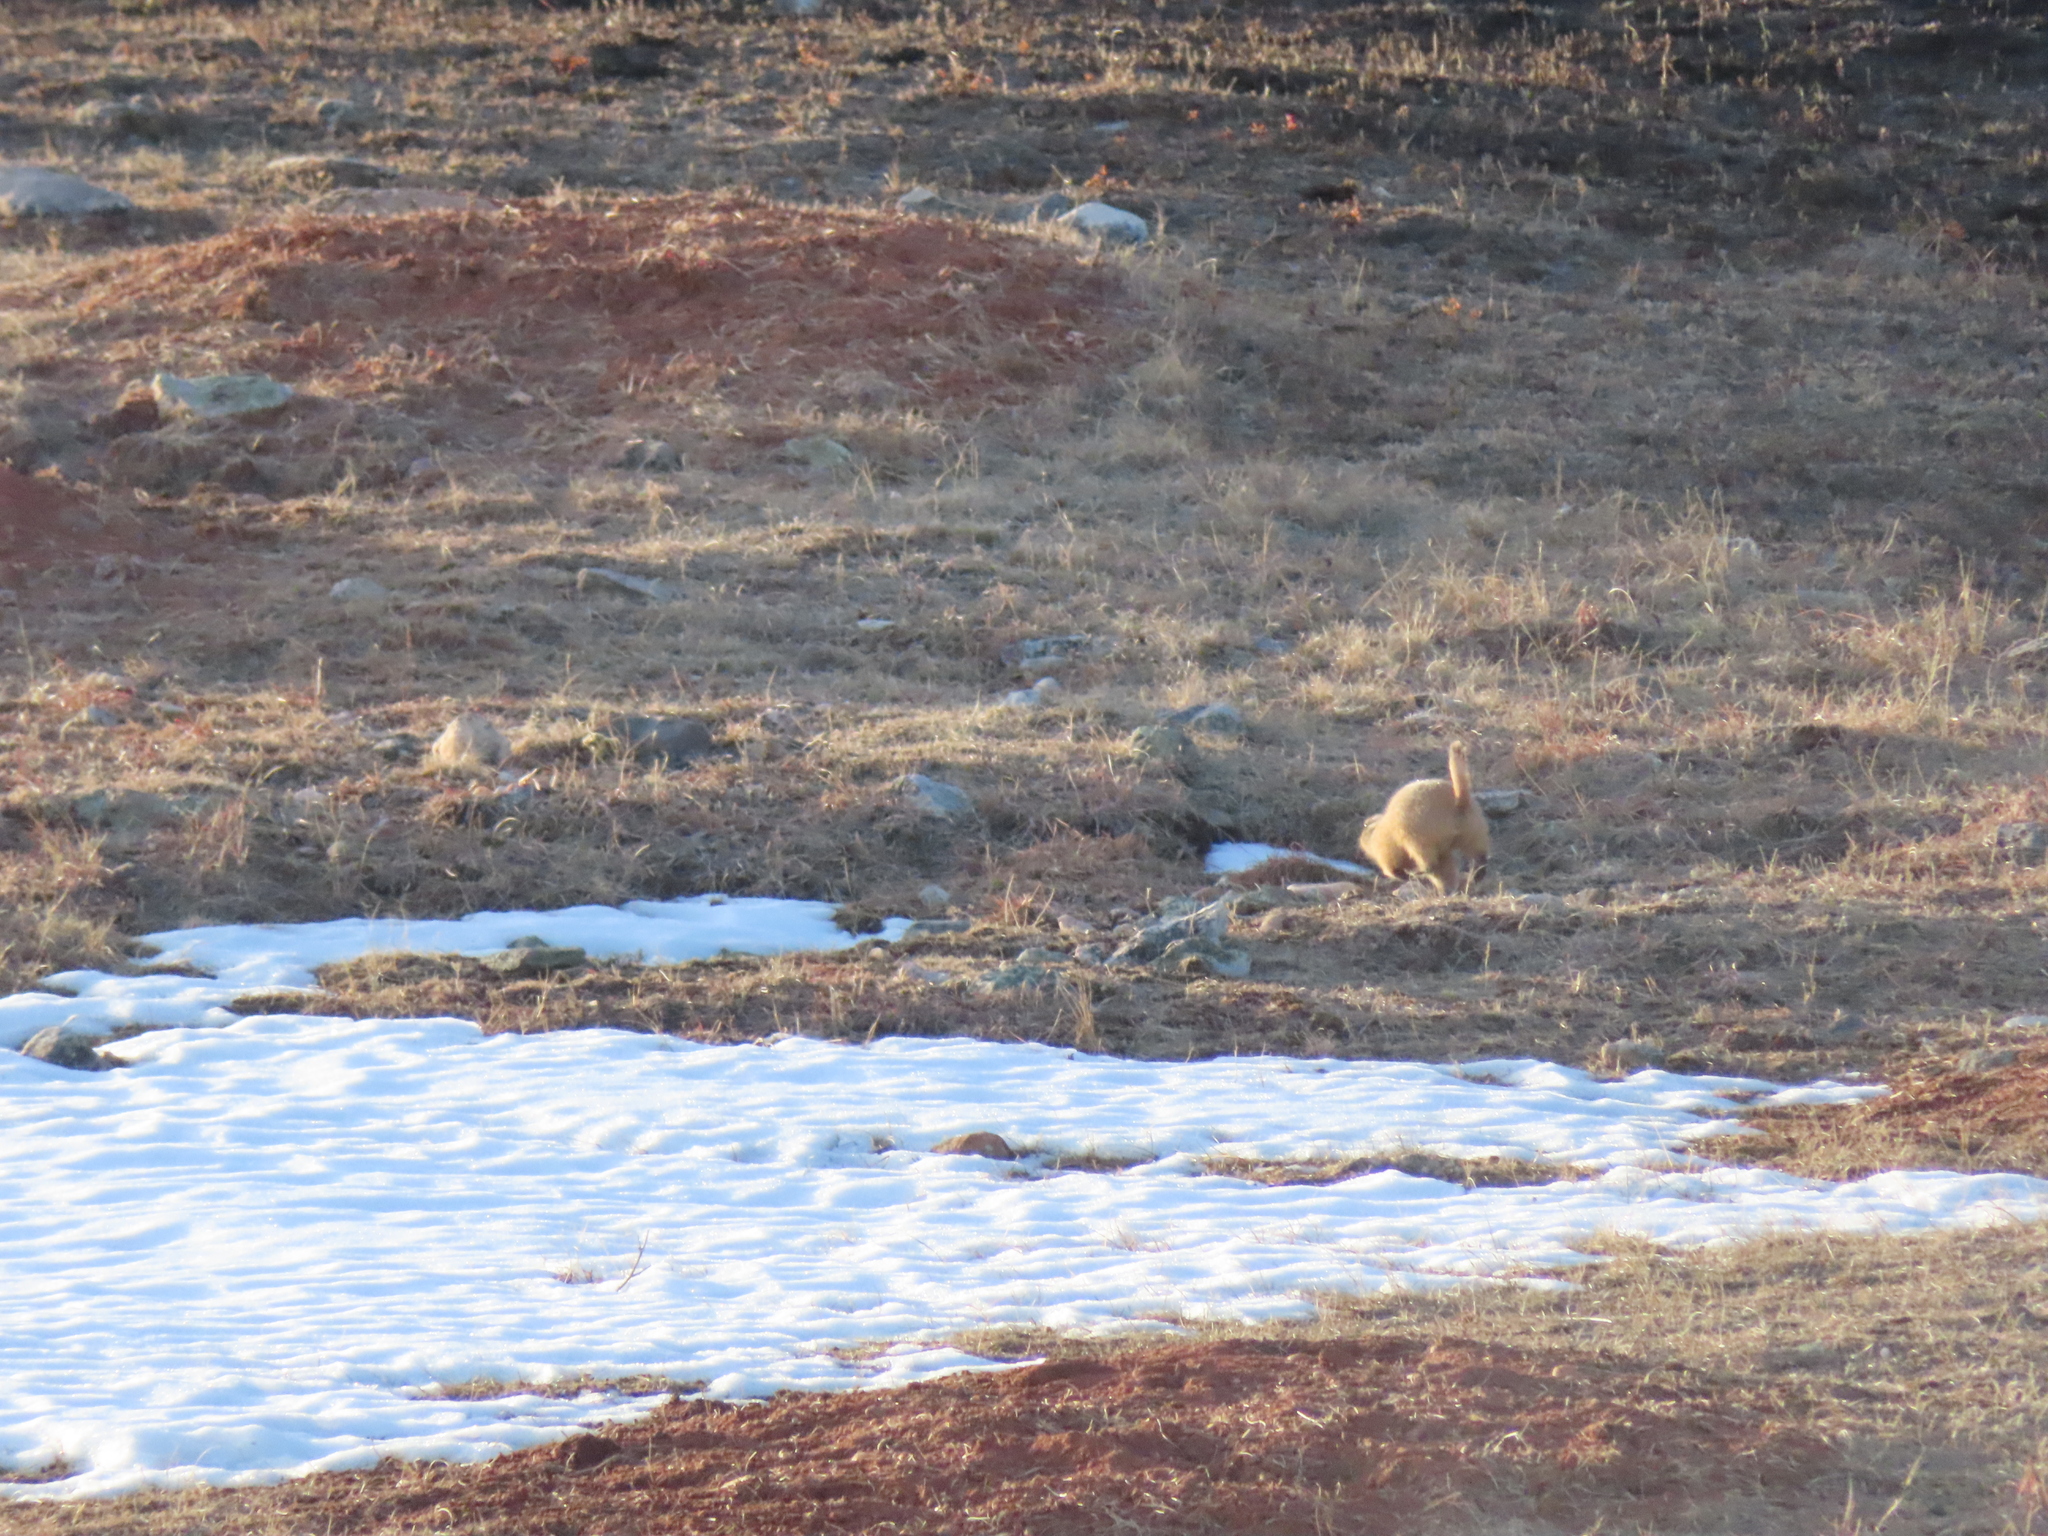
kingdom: Animalia
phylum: Chordata
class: Mammalia
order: Rodentia
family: Sciuridae
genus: Cynomys
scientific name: Cynomys ludovicianus
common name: Black-tailed prairie dog
